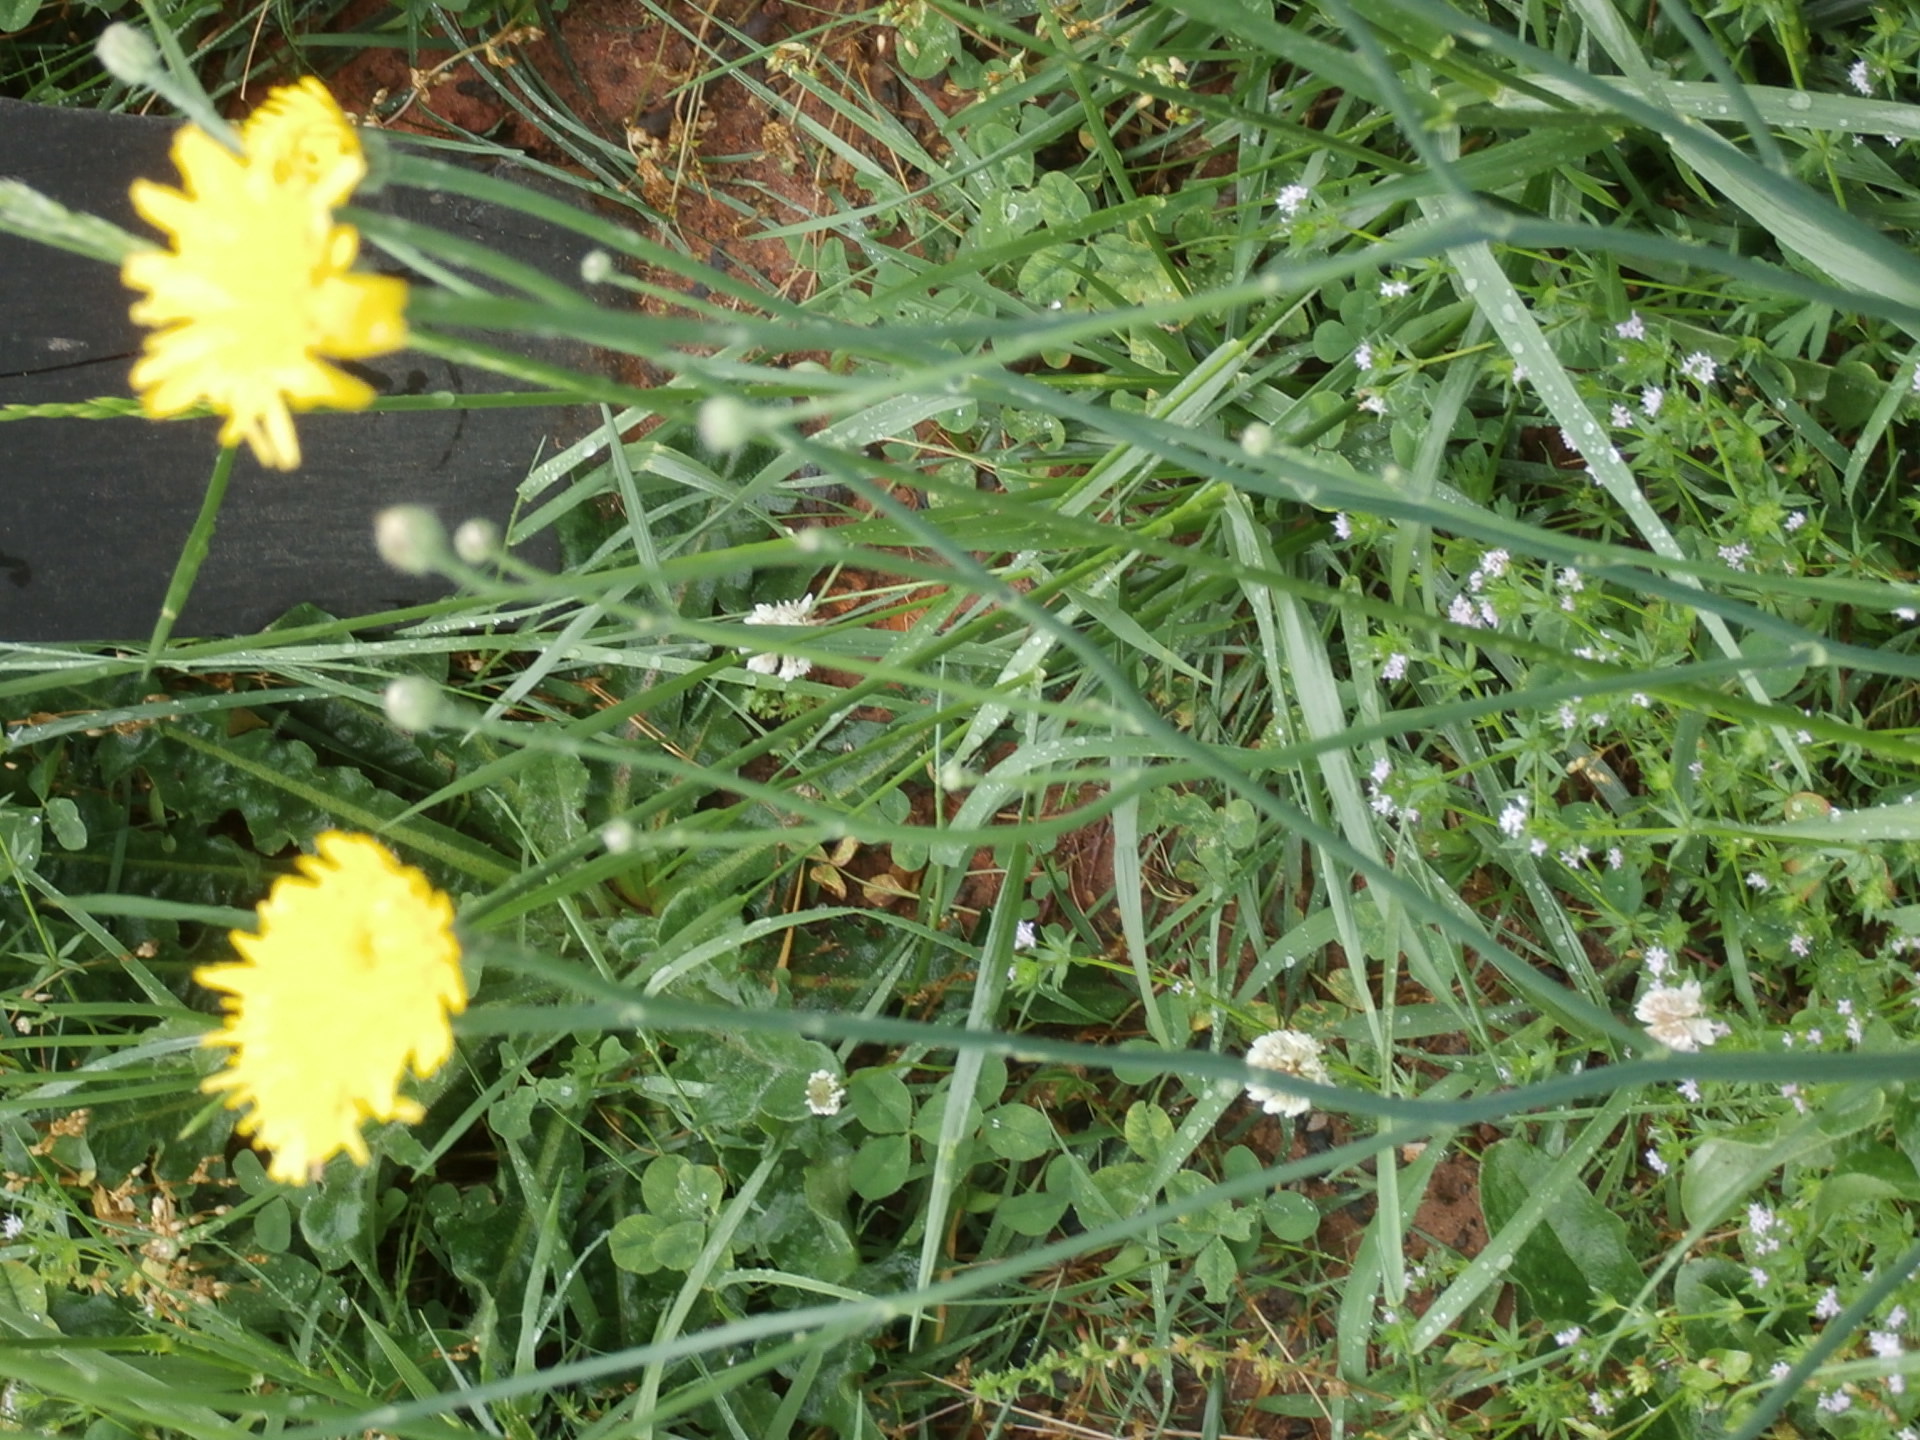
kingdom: Plantae
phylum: Tracheophyta
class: Magnoliopsida
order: Asterales
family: Asteraceae
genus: Hypochaeris
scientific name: Hypochaeris radicata
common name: Flatweed
